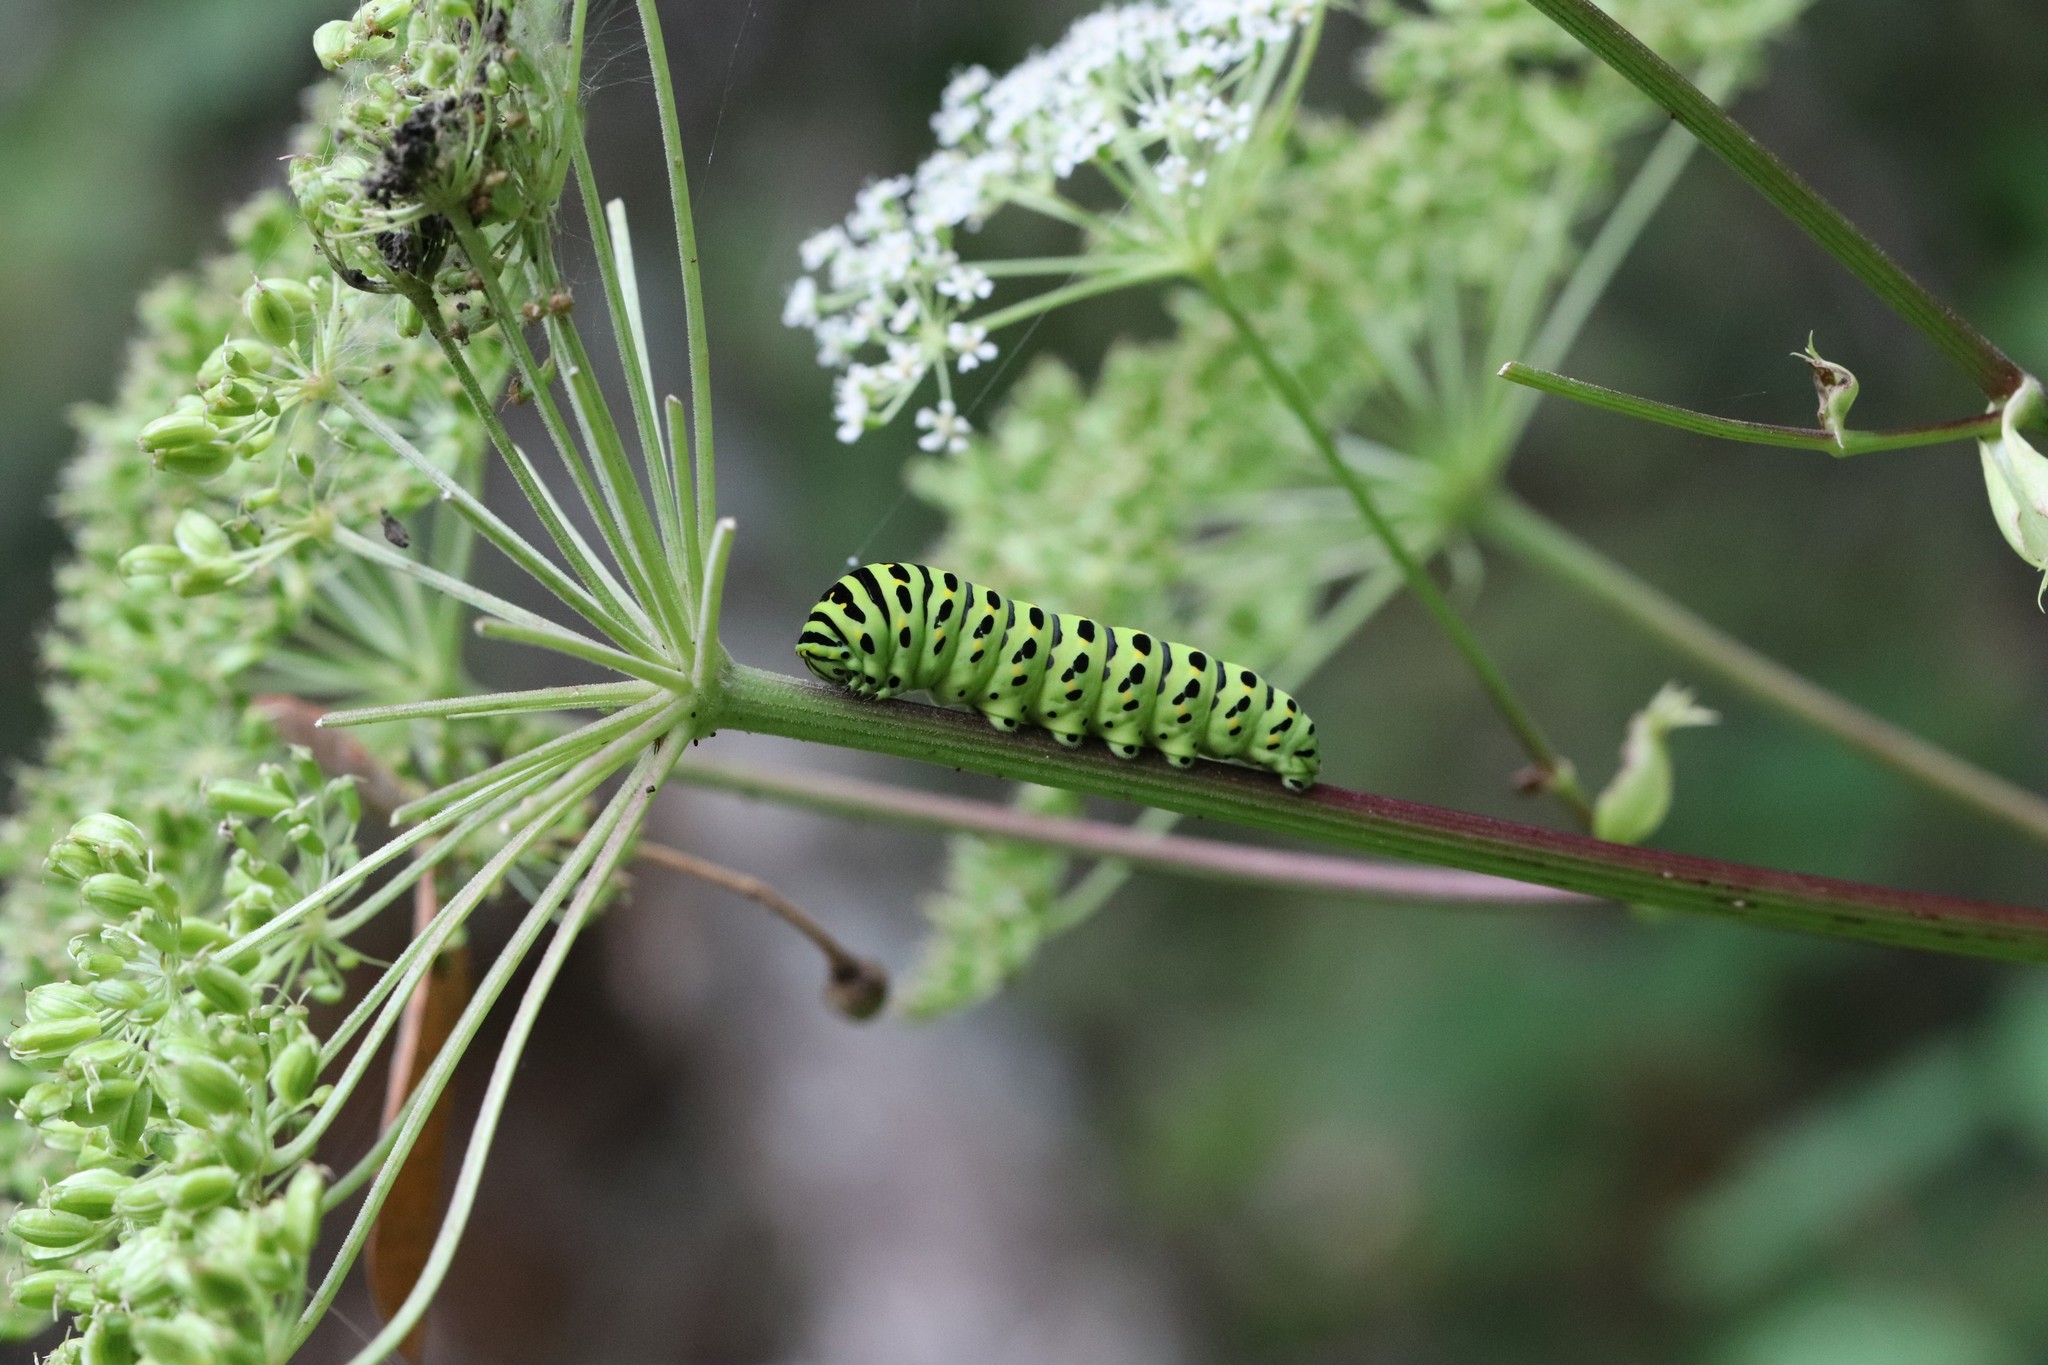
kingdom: Animalia
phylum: Arthropoda
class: Insecta
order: Lepidoptera
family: Papilionidae
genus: Papilio
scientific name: Papilio machaon
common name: Swallowtail
